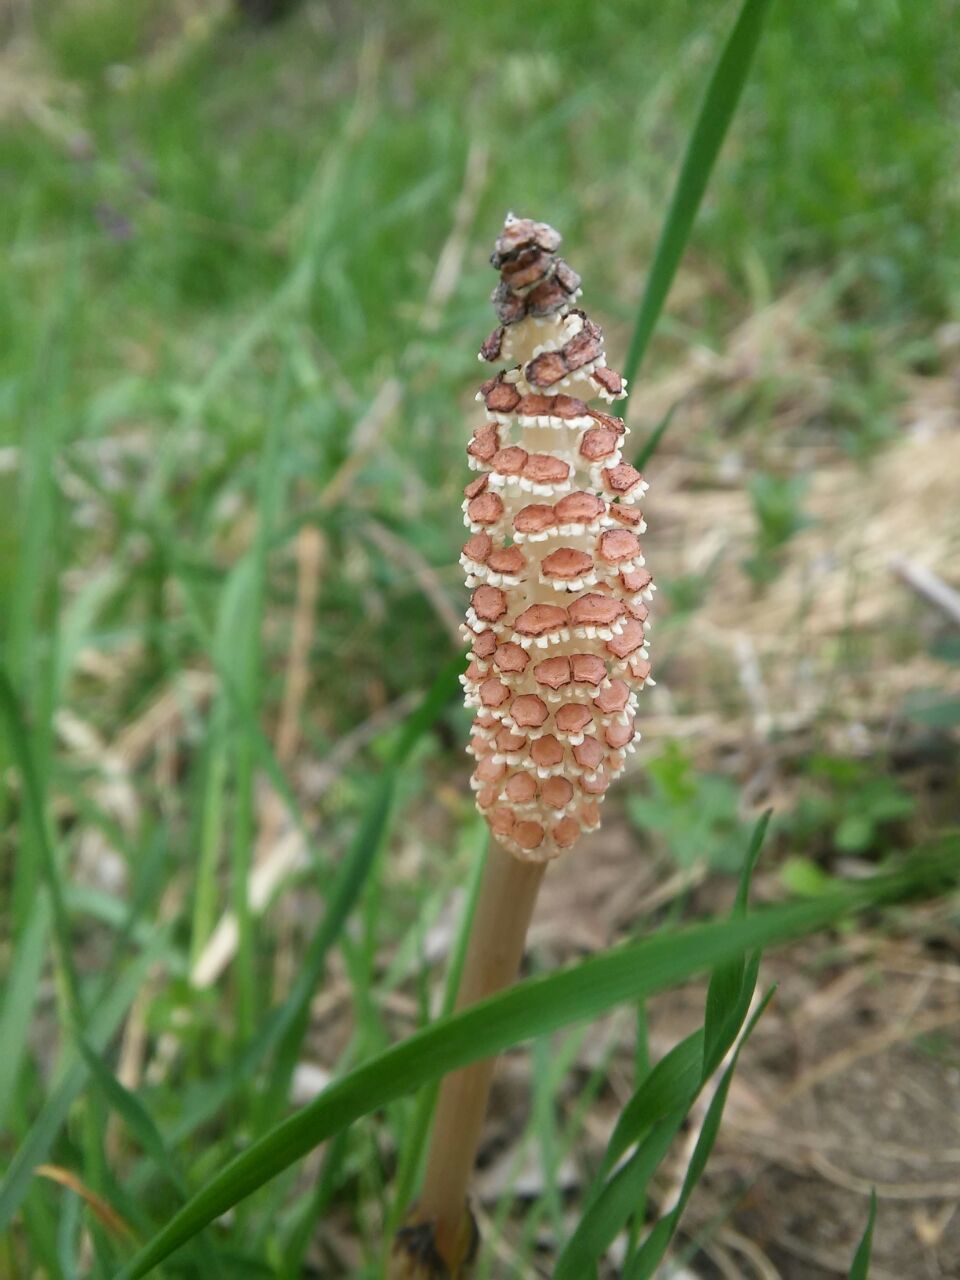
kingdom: Plantae
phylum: Tracheophyta
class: Polypodiopsida
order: Equisetales
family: Equisetaceae
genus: Equisetum
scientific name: Equisetum arvense
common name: Field horsetail
